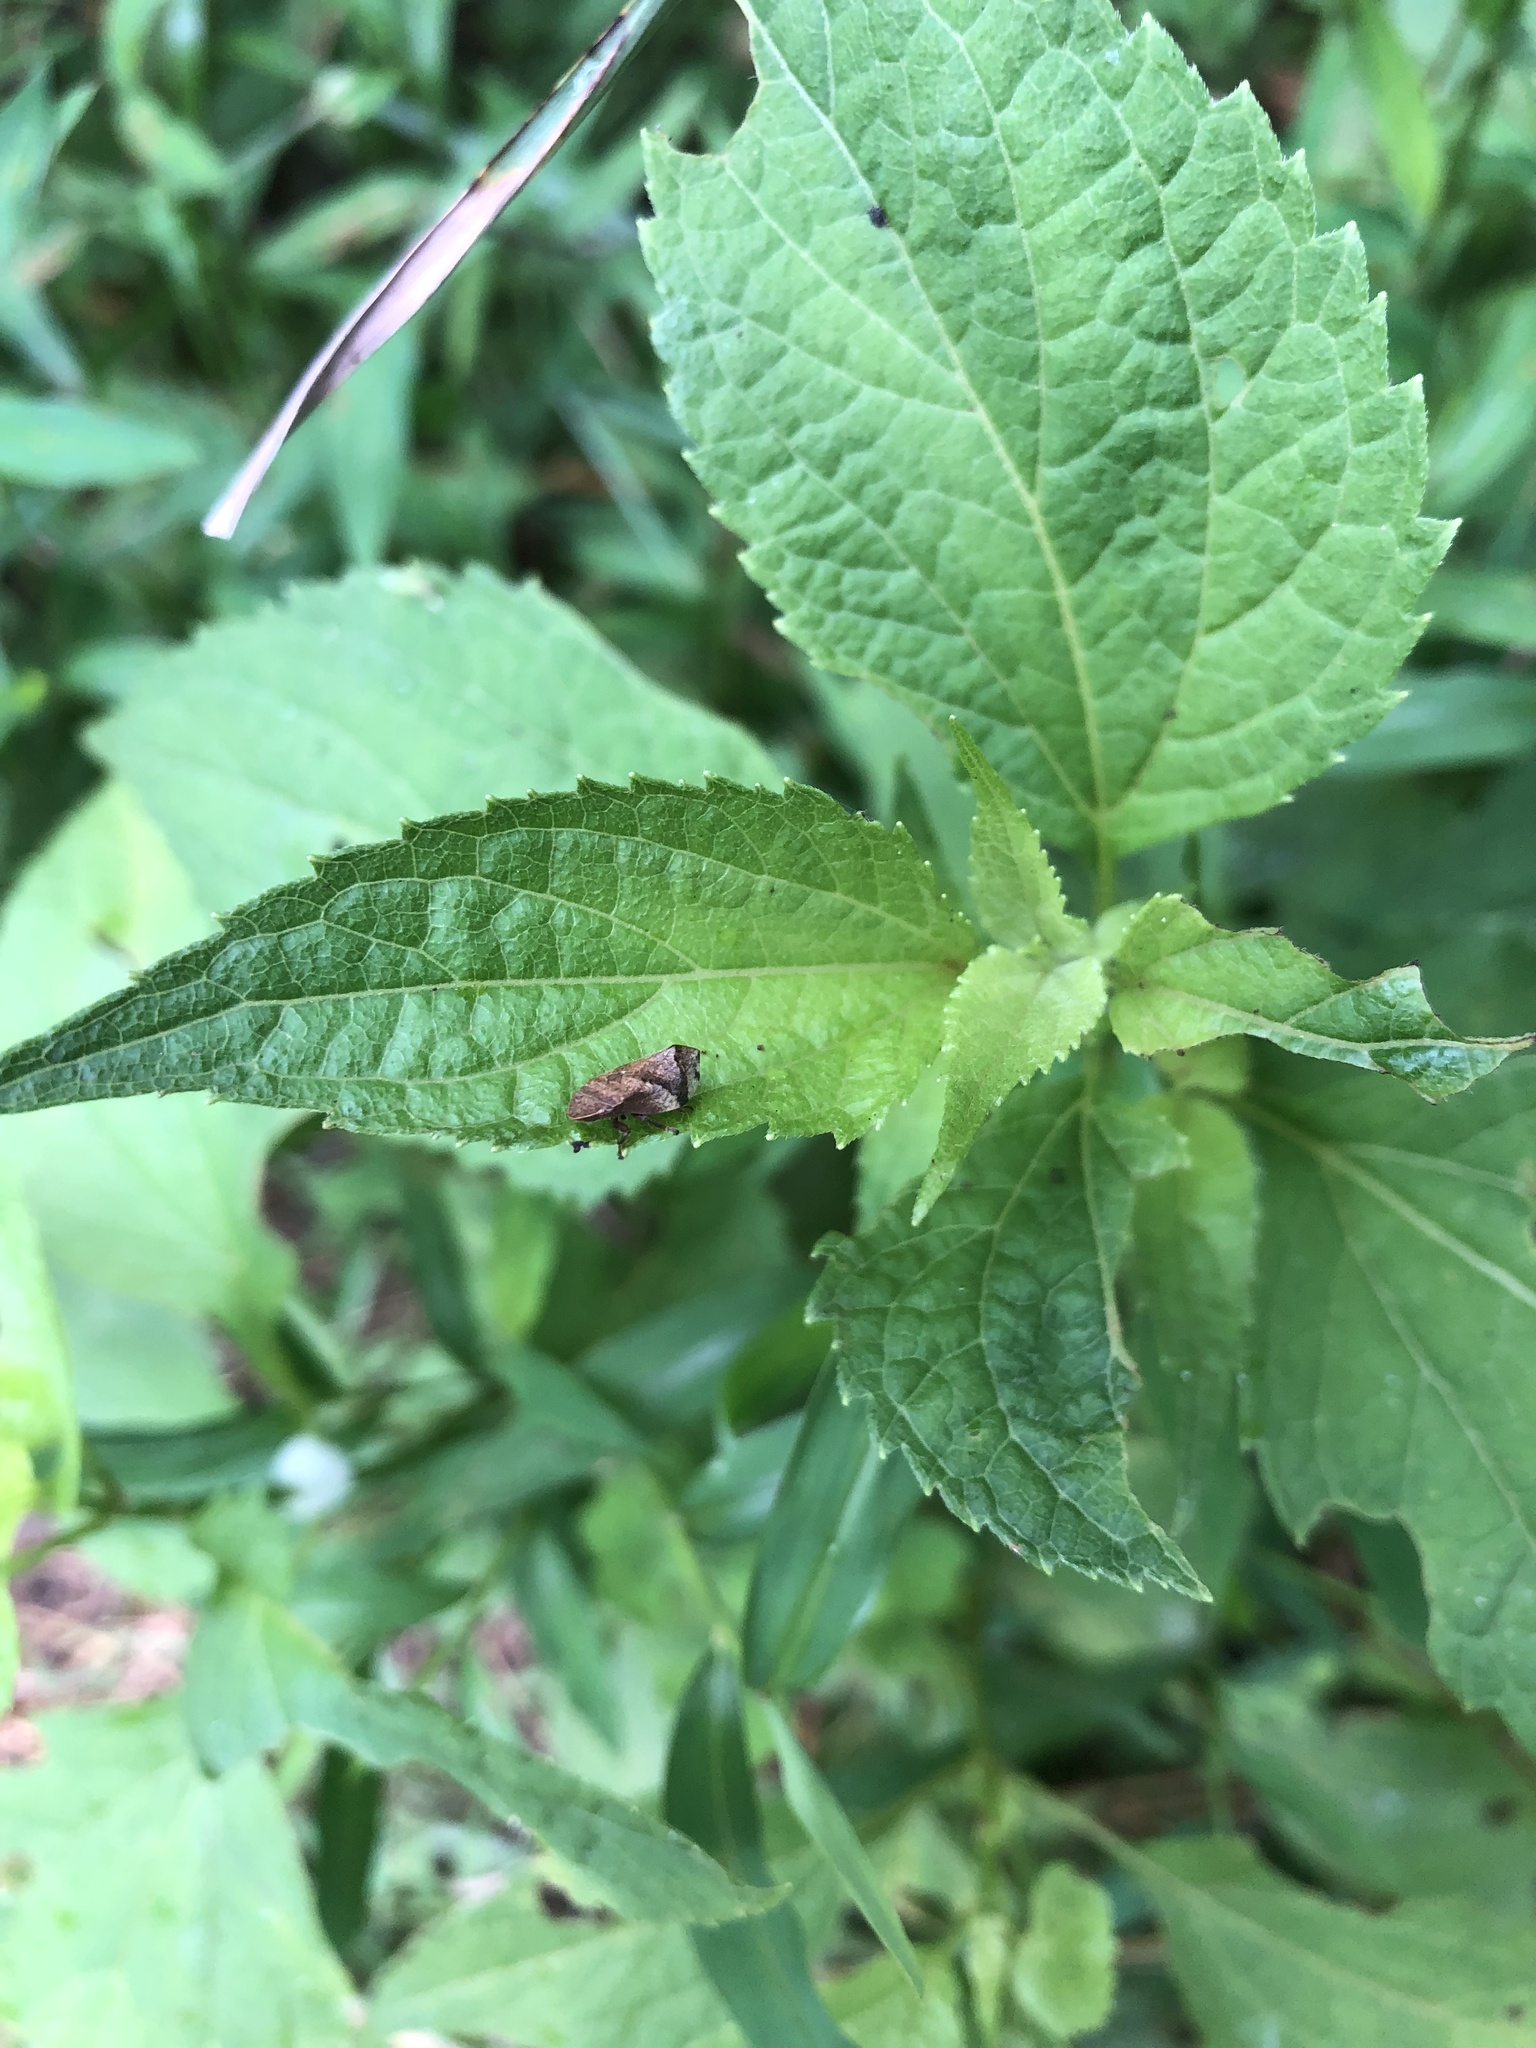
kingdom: Animalia
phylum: Arthropoda
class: Insecta
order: Hemiptera
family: Aphrophoridae
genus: Lepyronia
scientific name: Lepyronia quadrangularis
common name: Diamond-backed spittlebug
